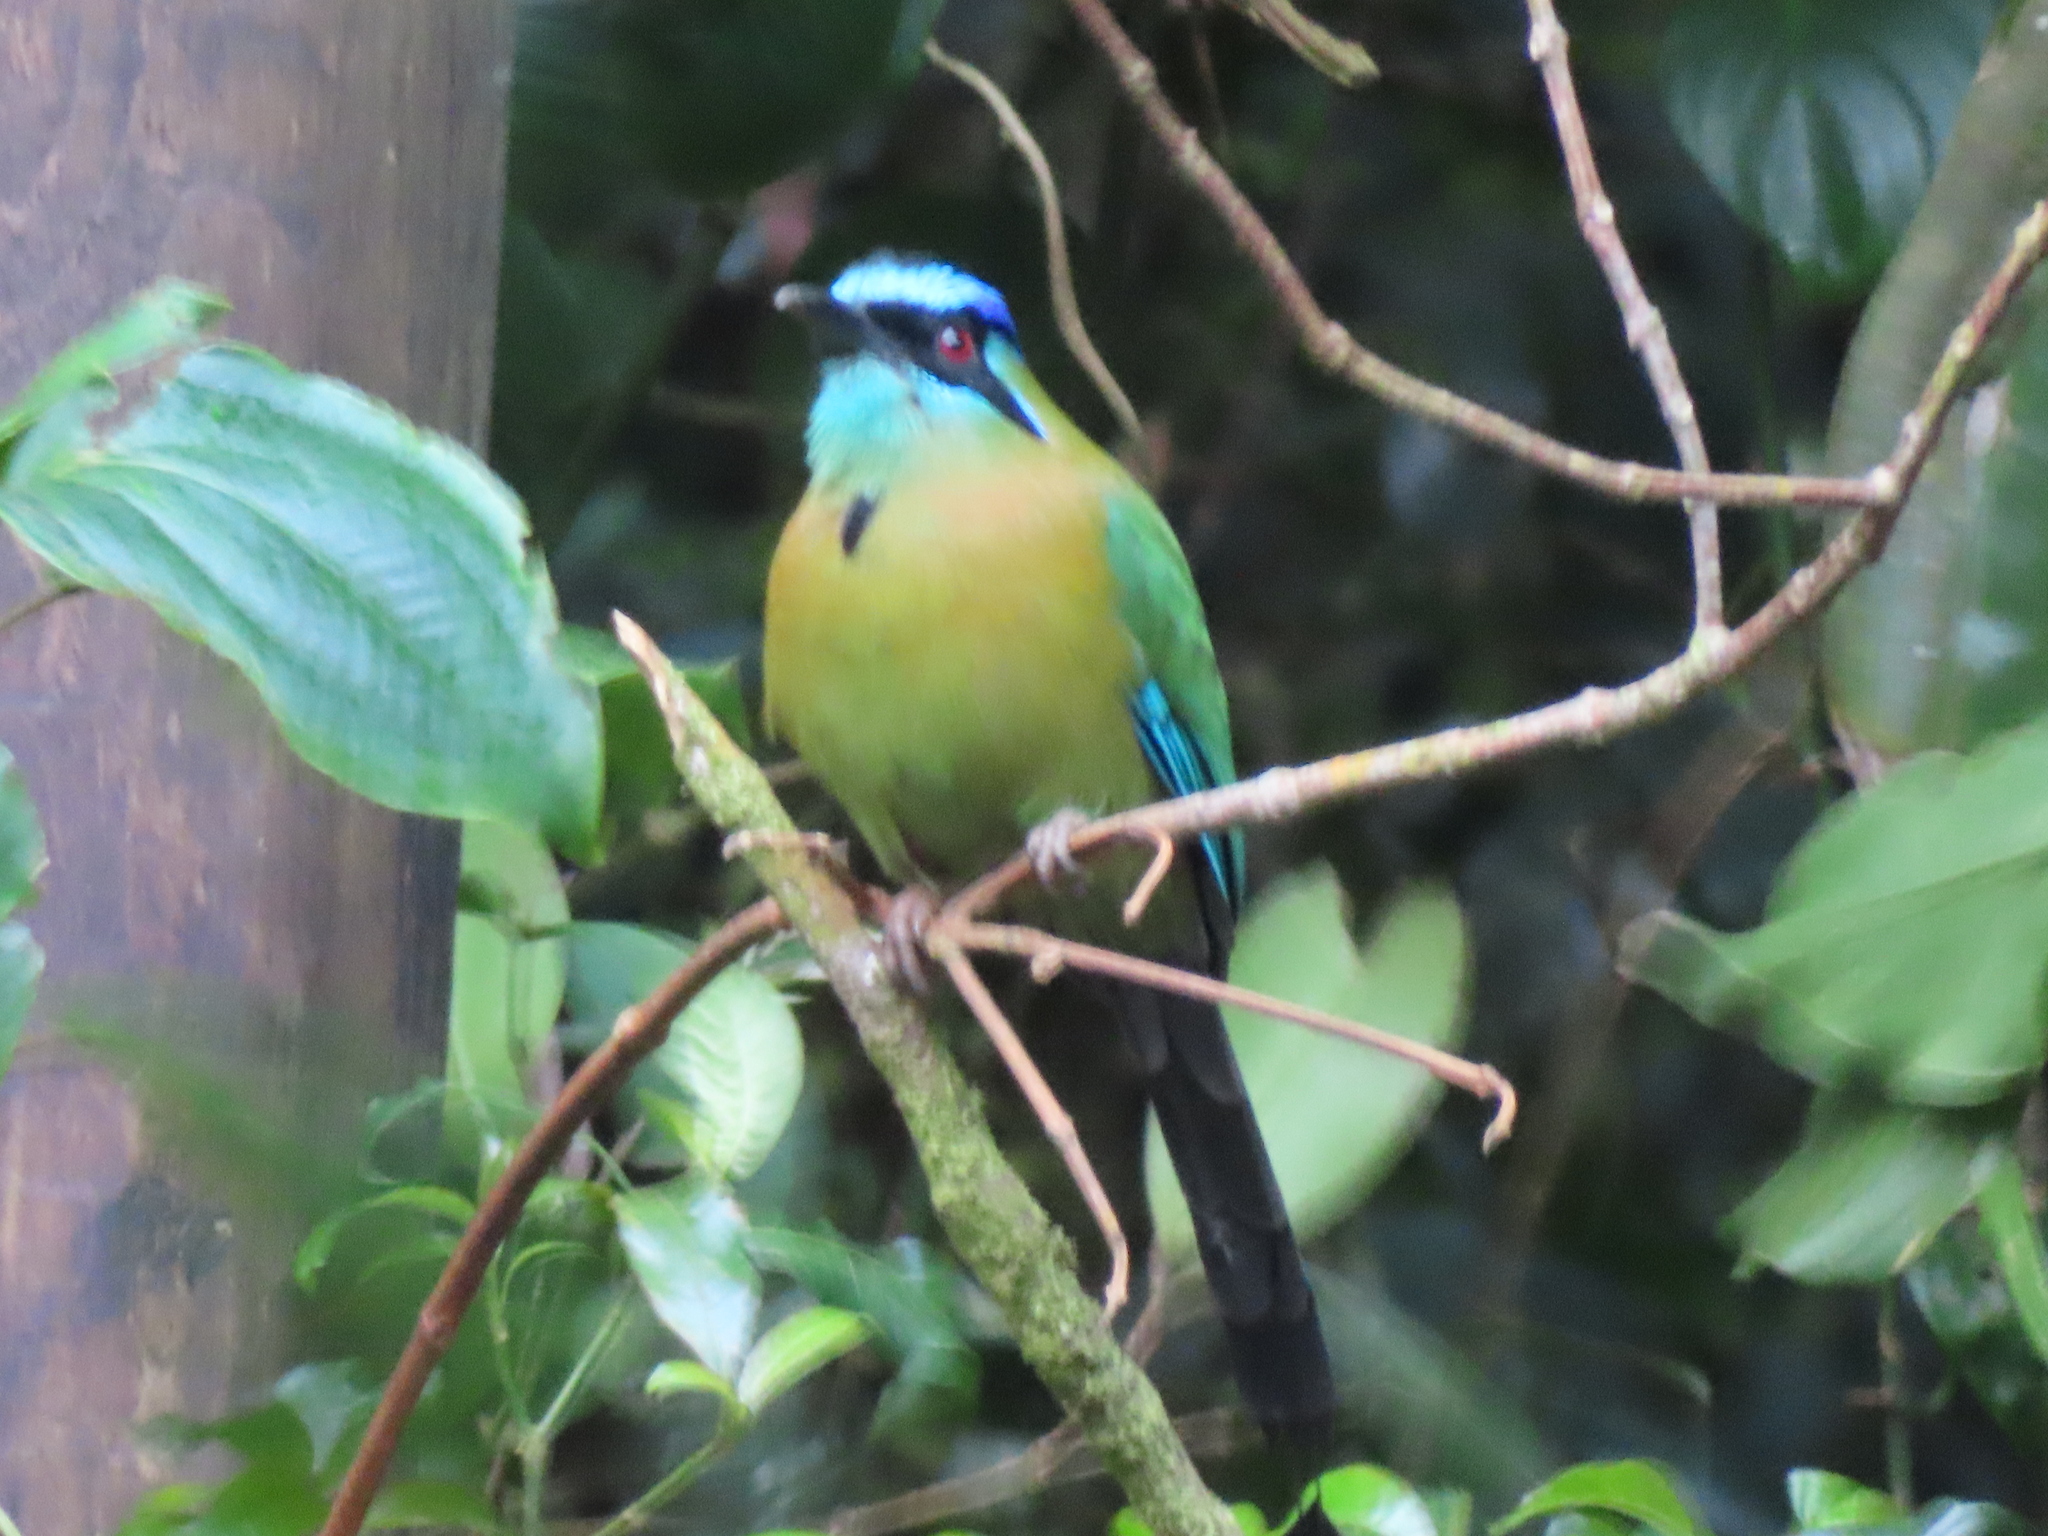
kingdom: Animalia
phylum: Chordata
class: Aves
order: Coraciiformes
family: Momotidae
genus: Momotus
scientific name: Momotus lessonii
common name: Lesson's motmot
